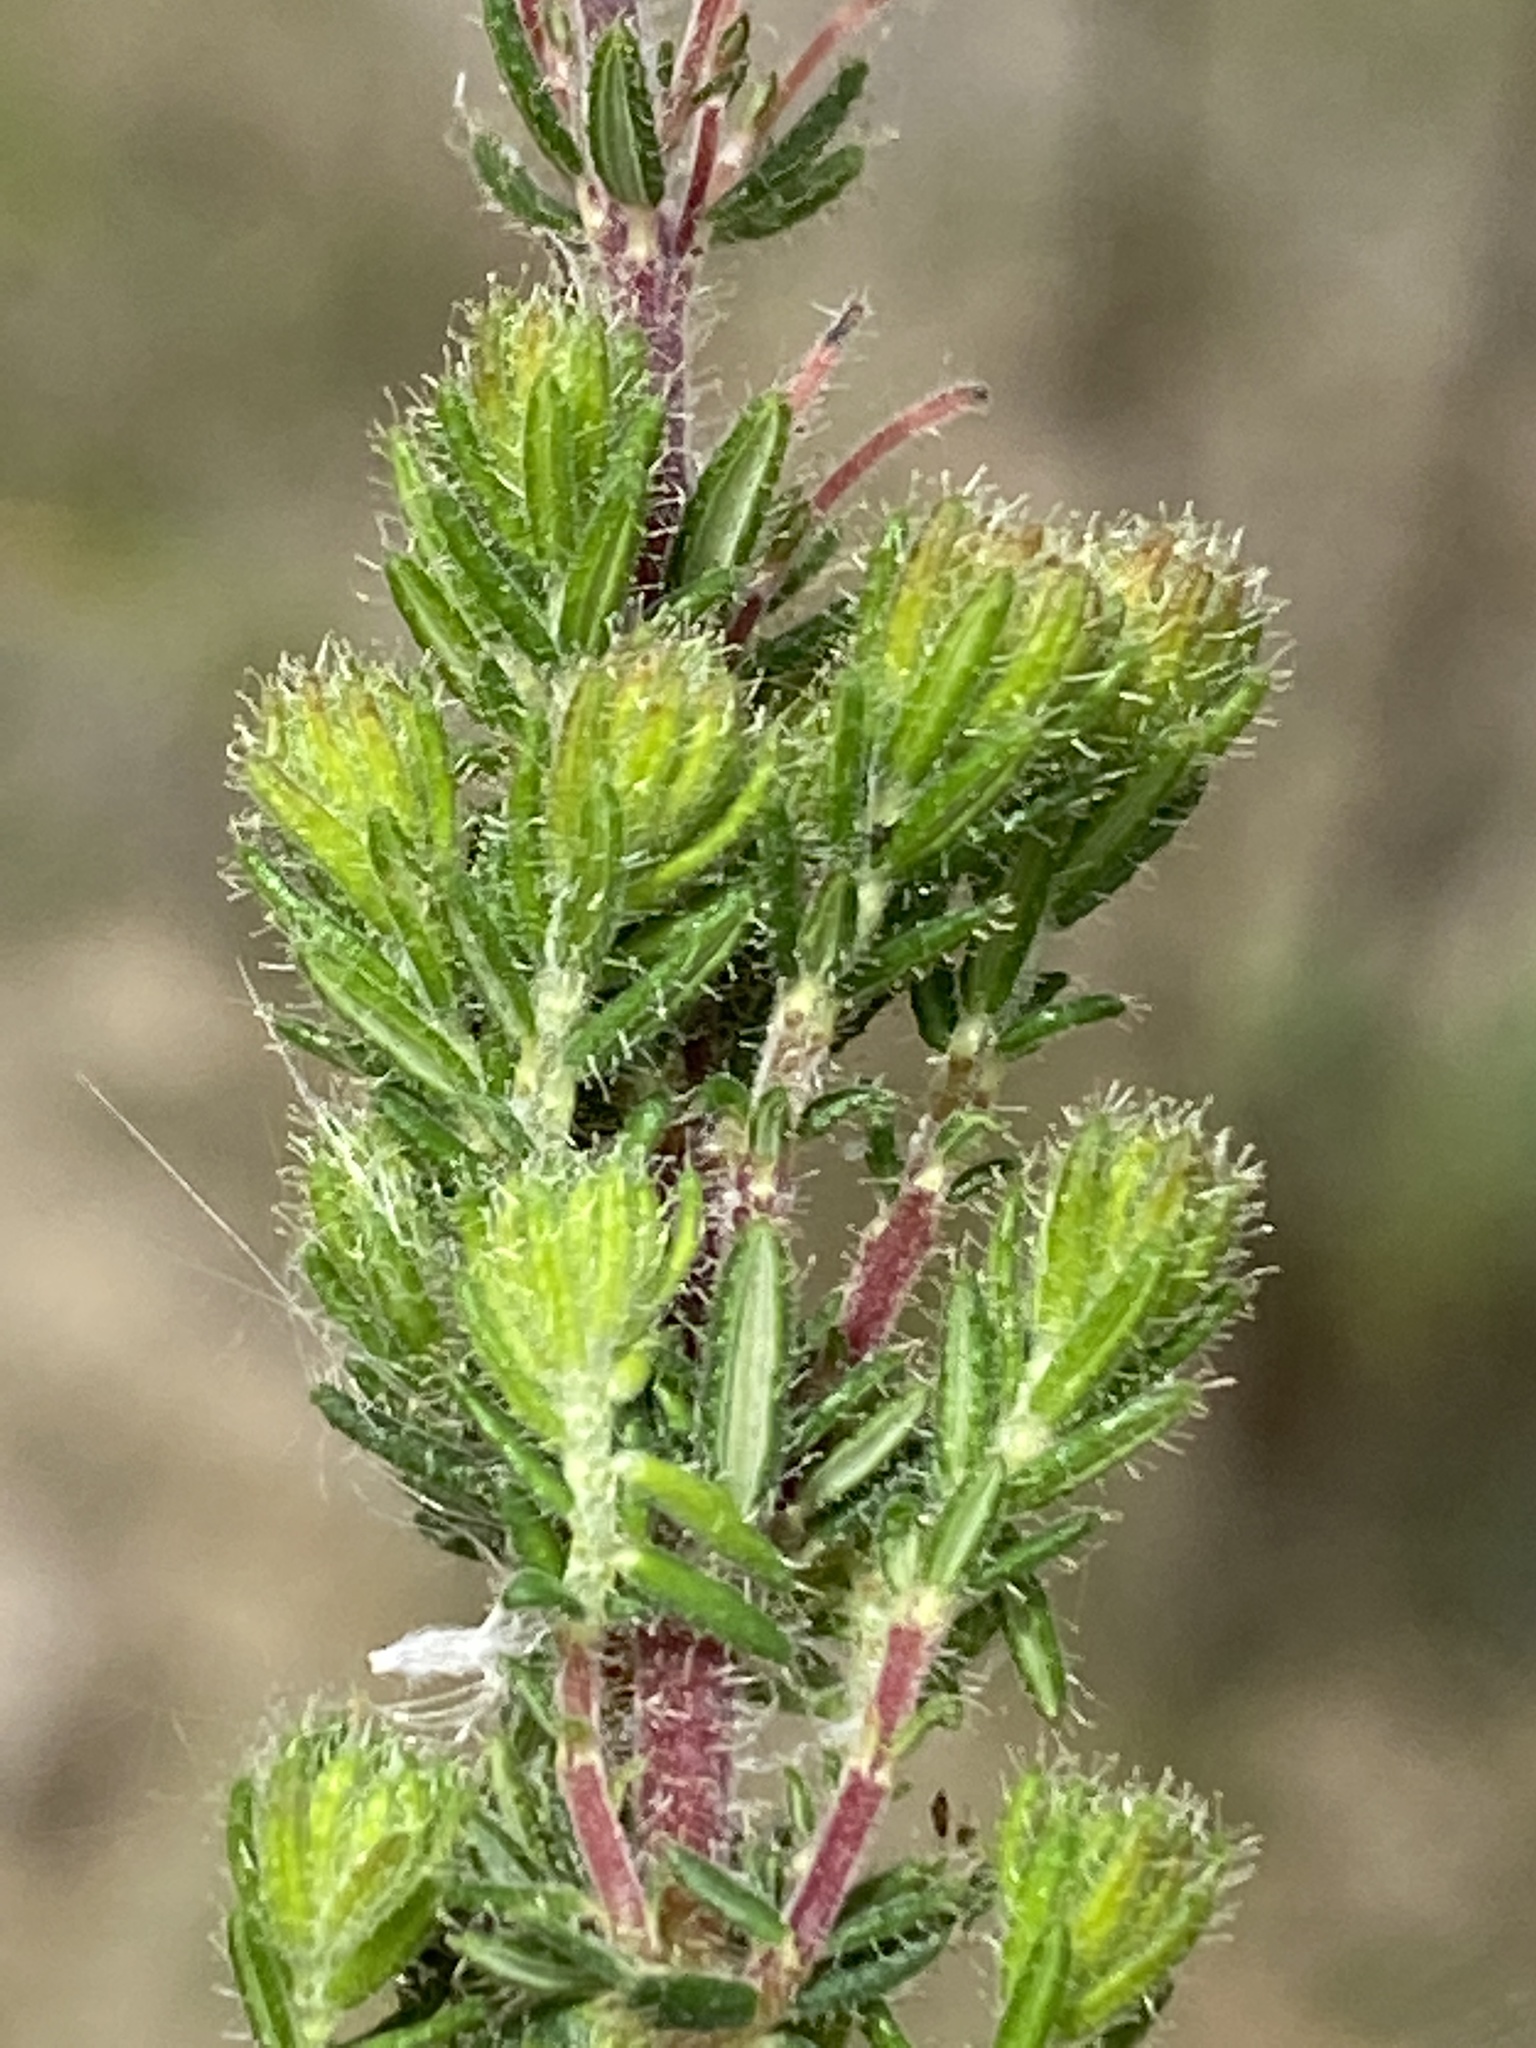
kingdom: Plantae
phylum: Tracheophyta
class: Magnoliopsida
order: Ericales
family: Ericaceae
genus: Erica
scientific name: Erica racemosa
